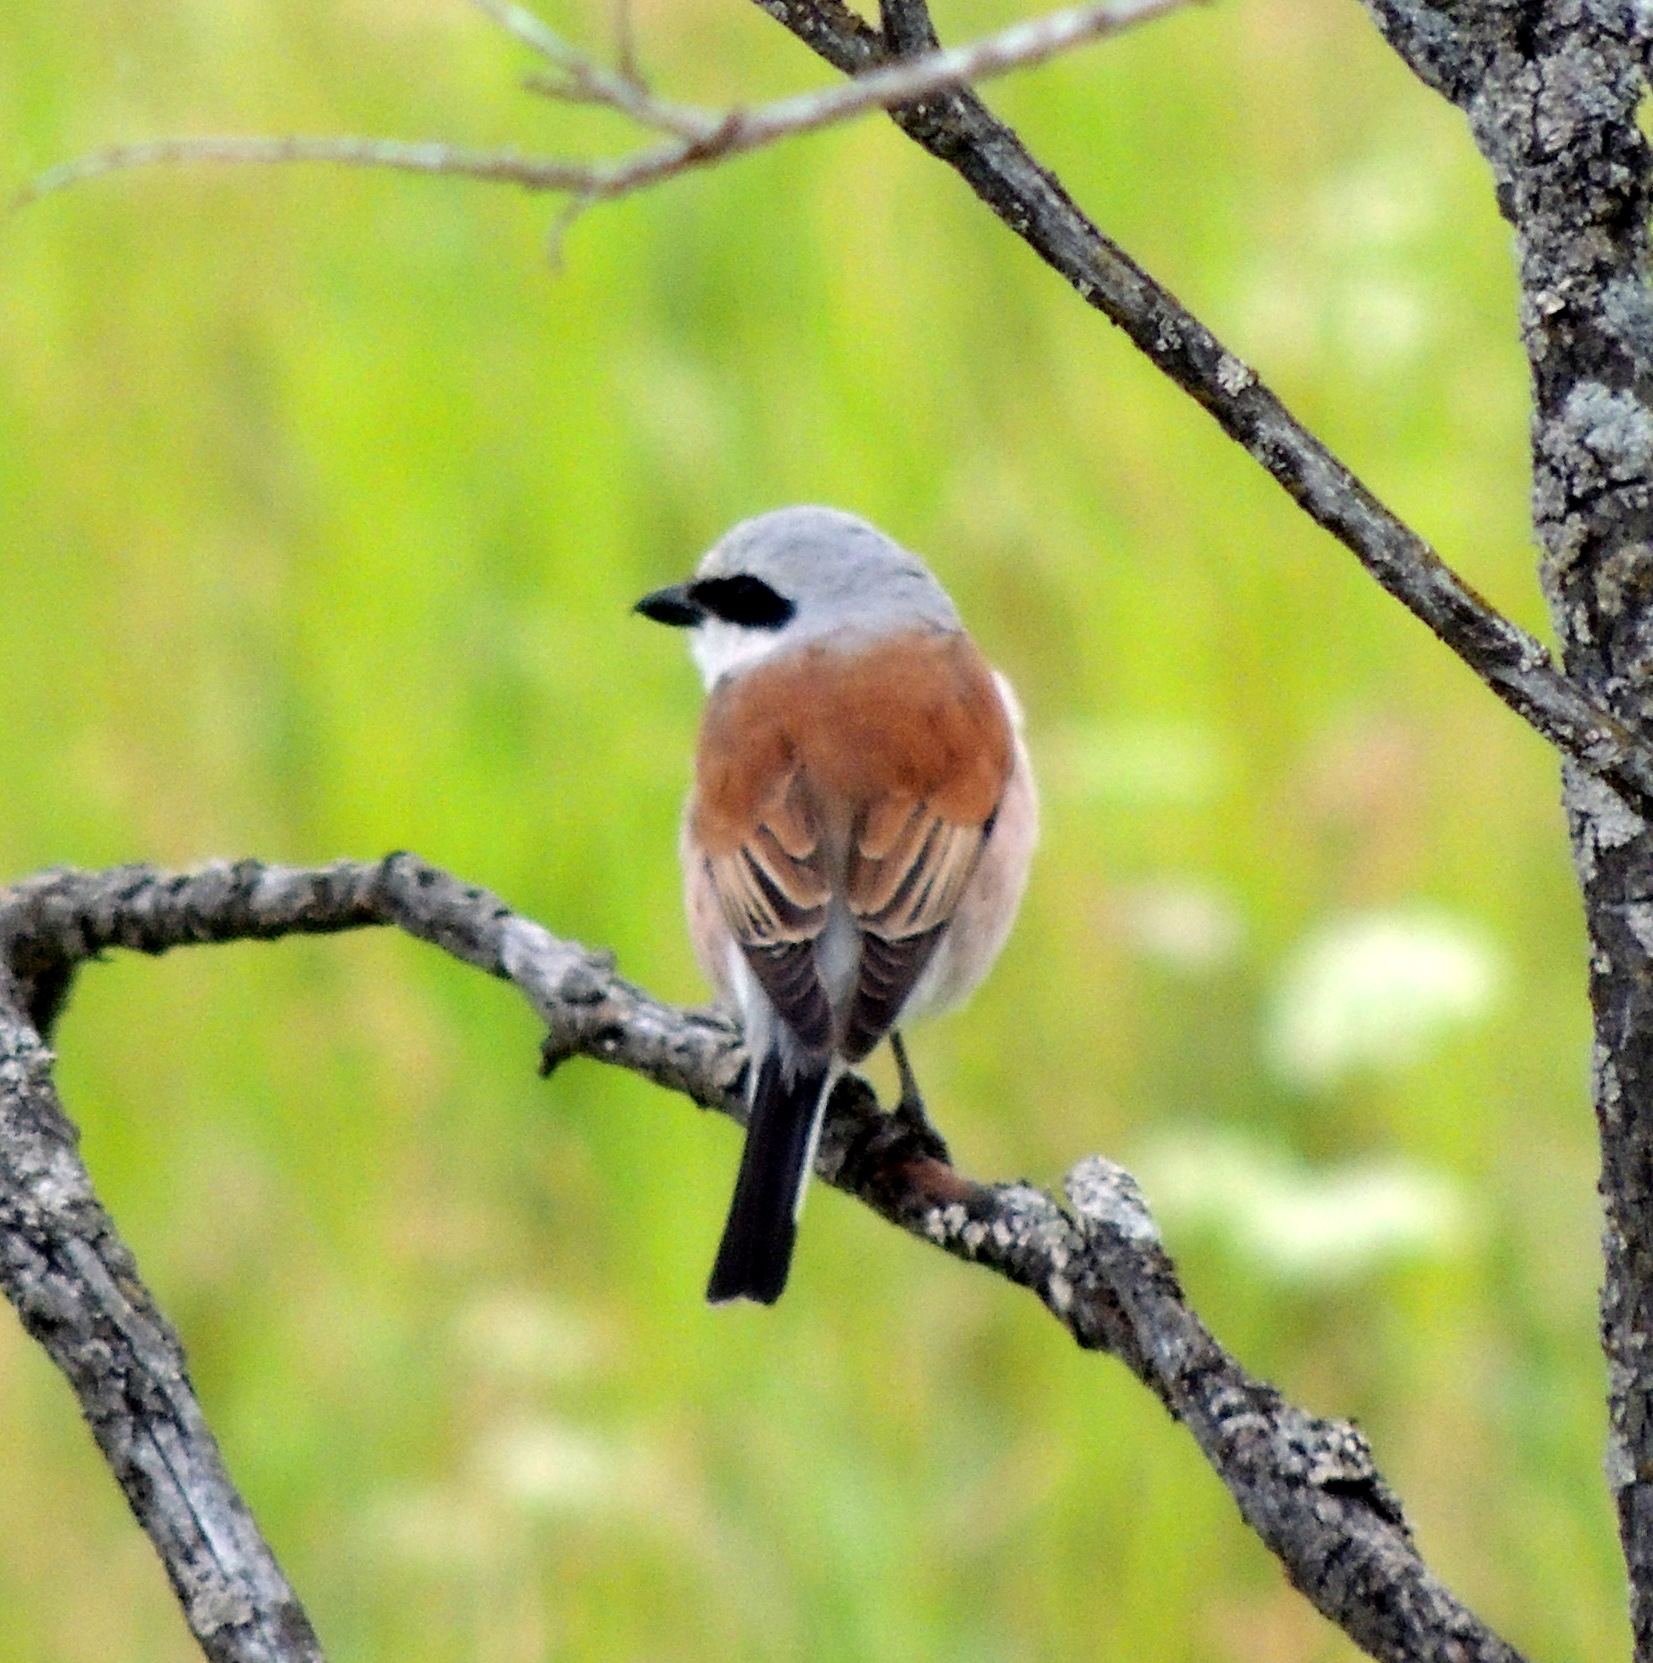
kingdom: Animalia
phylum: Chordata
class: Aves
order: Passeriformes
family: Laniidae
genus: Lanius
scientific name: Lanius collurio
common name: Red-backed shrike
